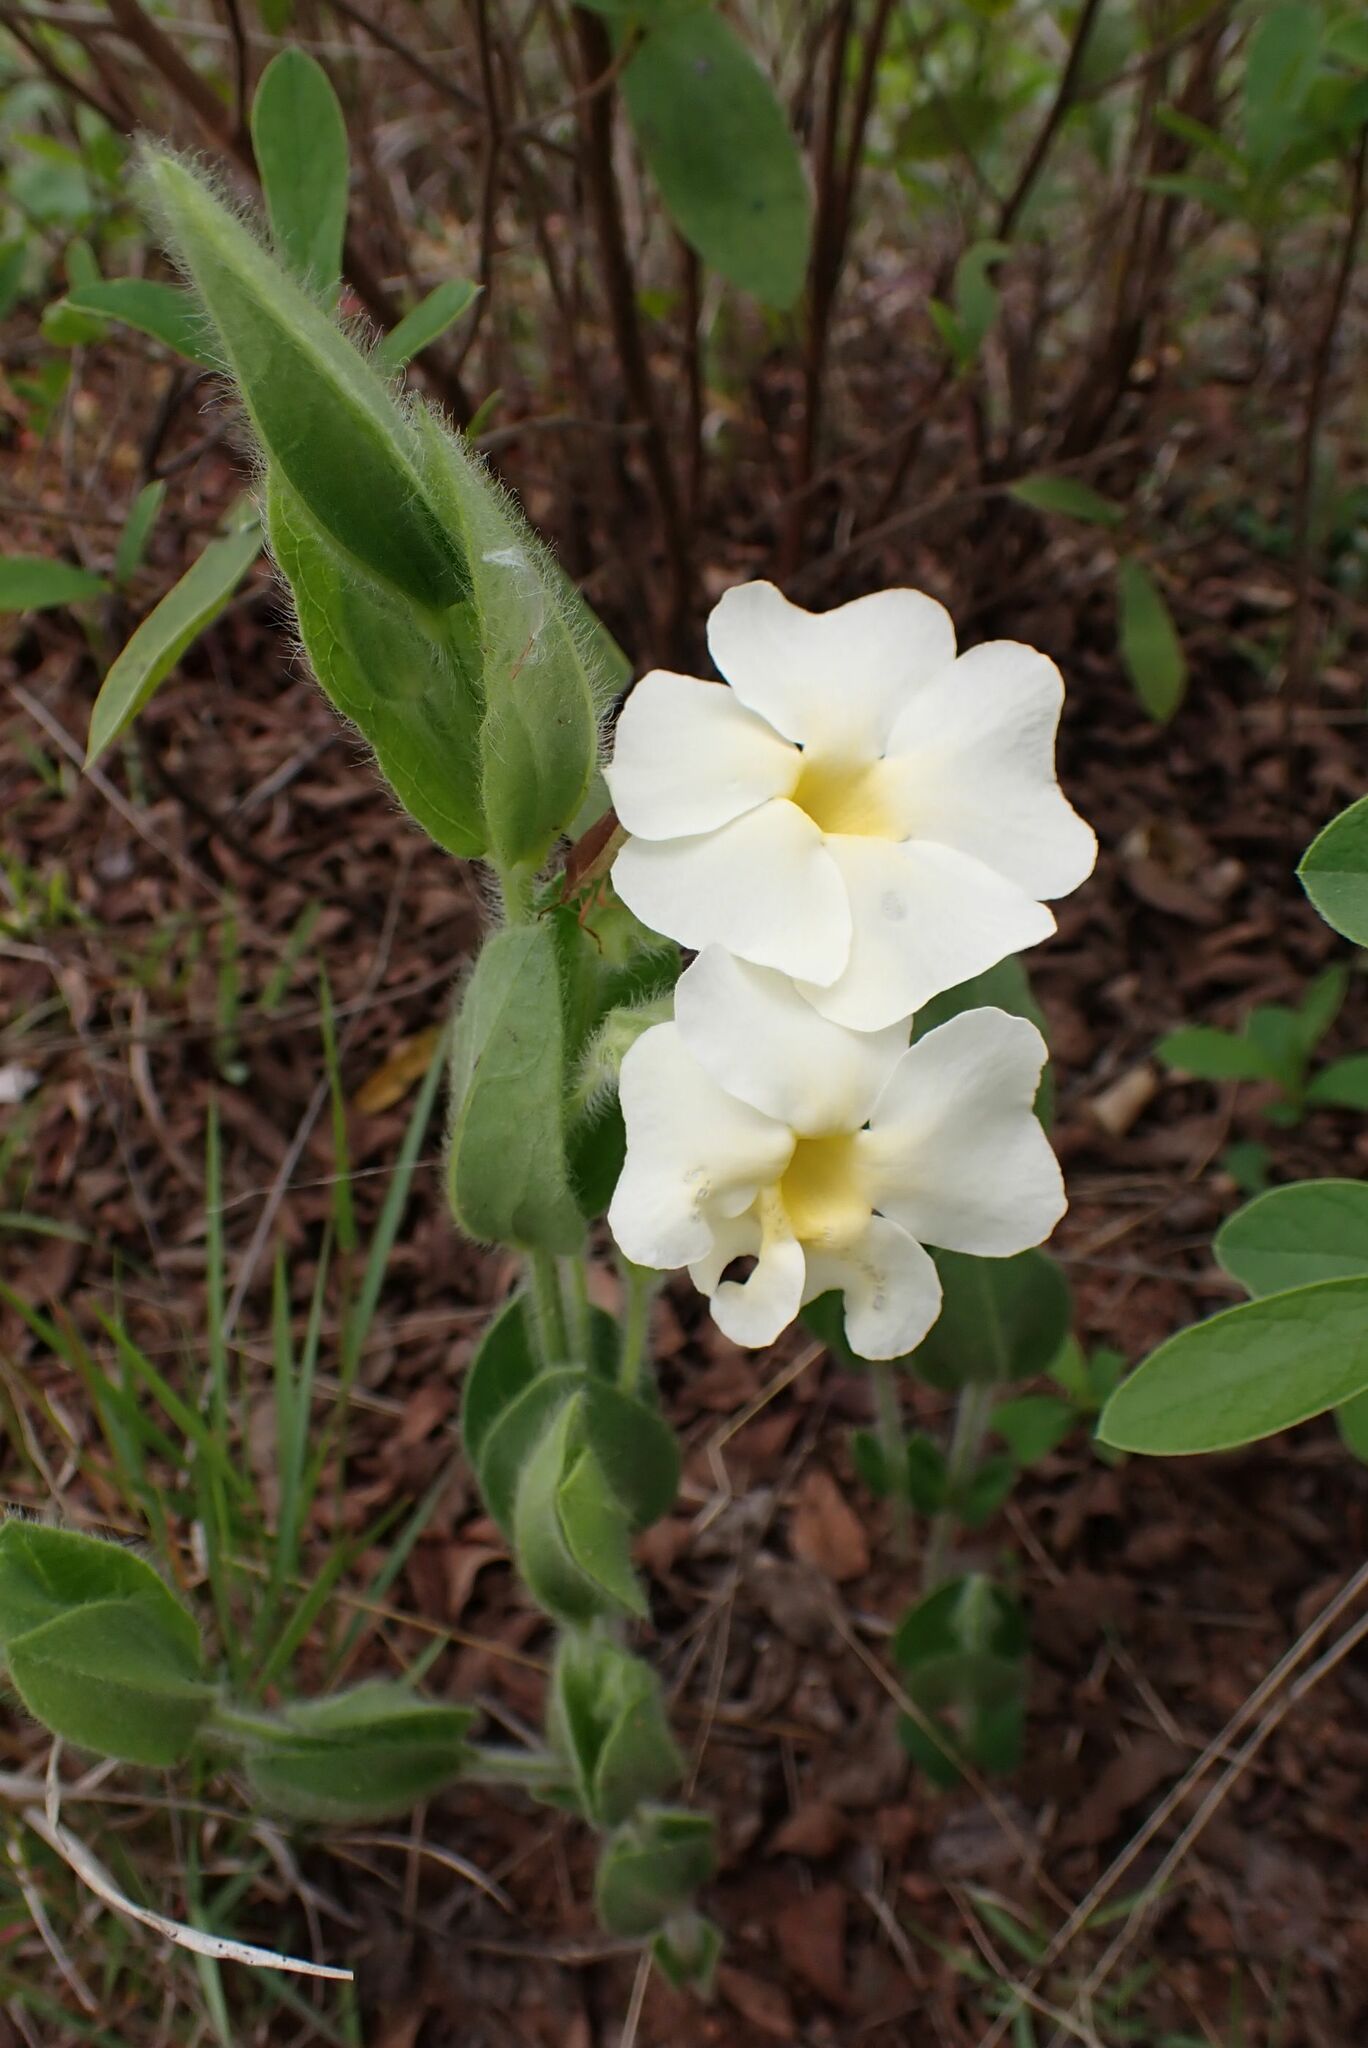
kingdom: Plantae
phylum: Tracheophyta
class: Magnoliopsida
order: Lamiales
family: Acanthaceae
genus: Thunbergia
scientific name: Thunbergia atriplicifolia
